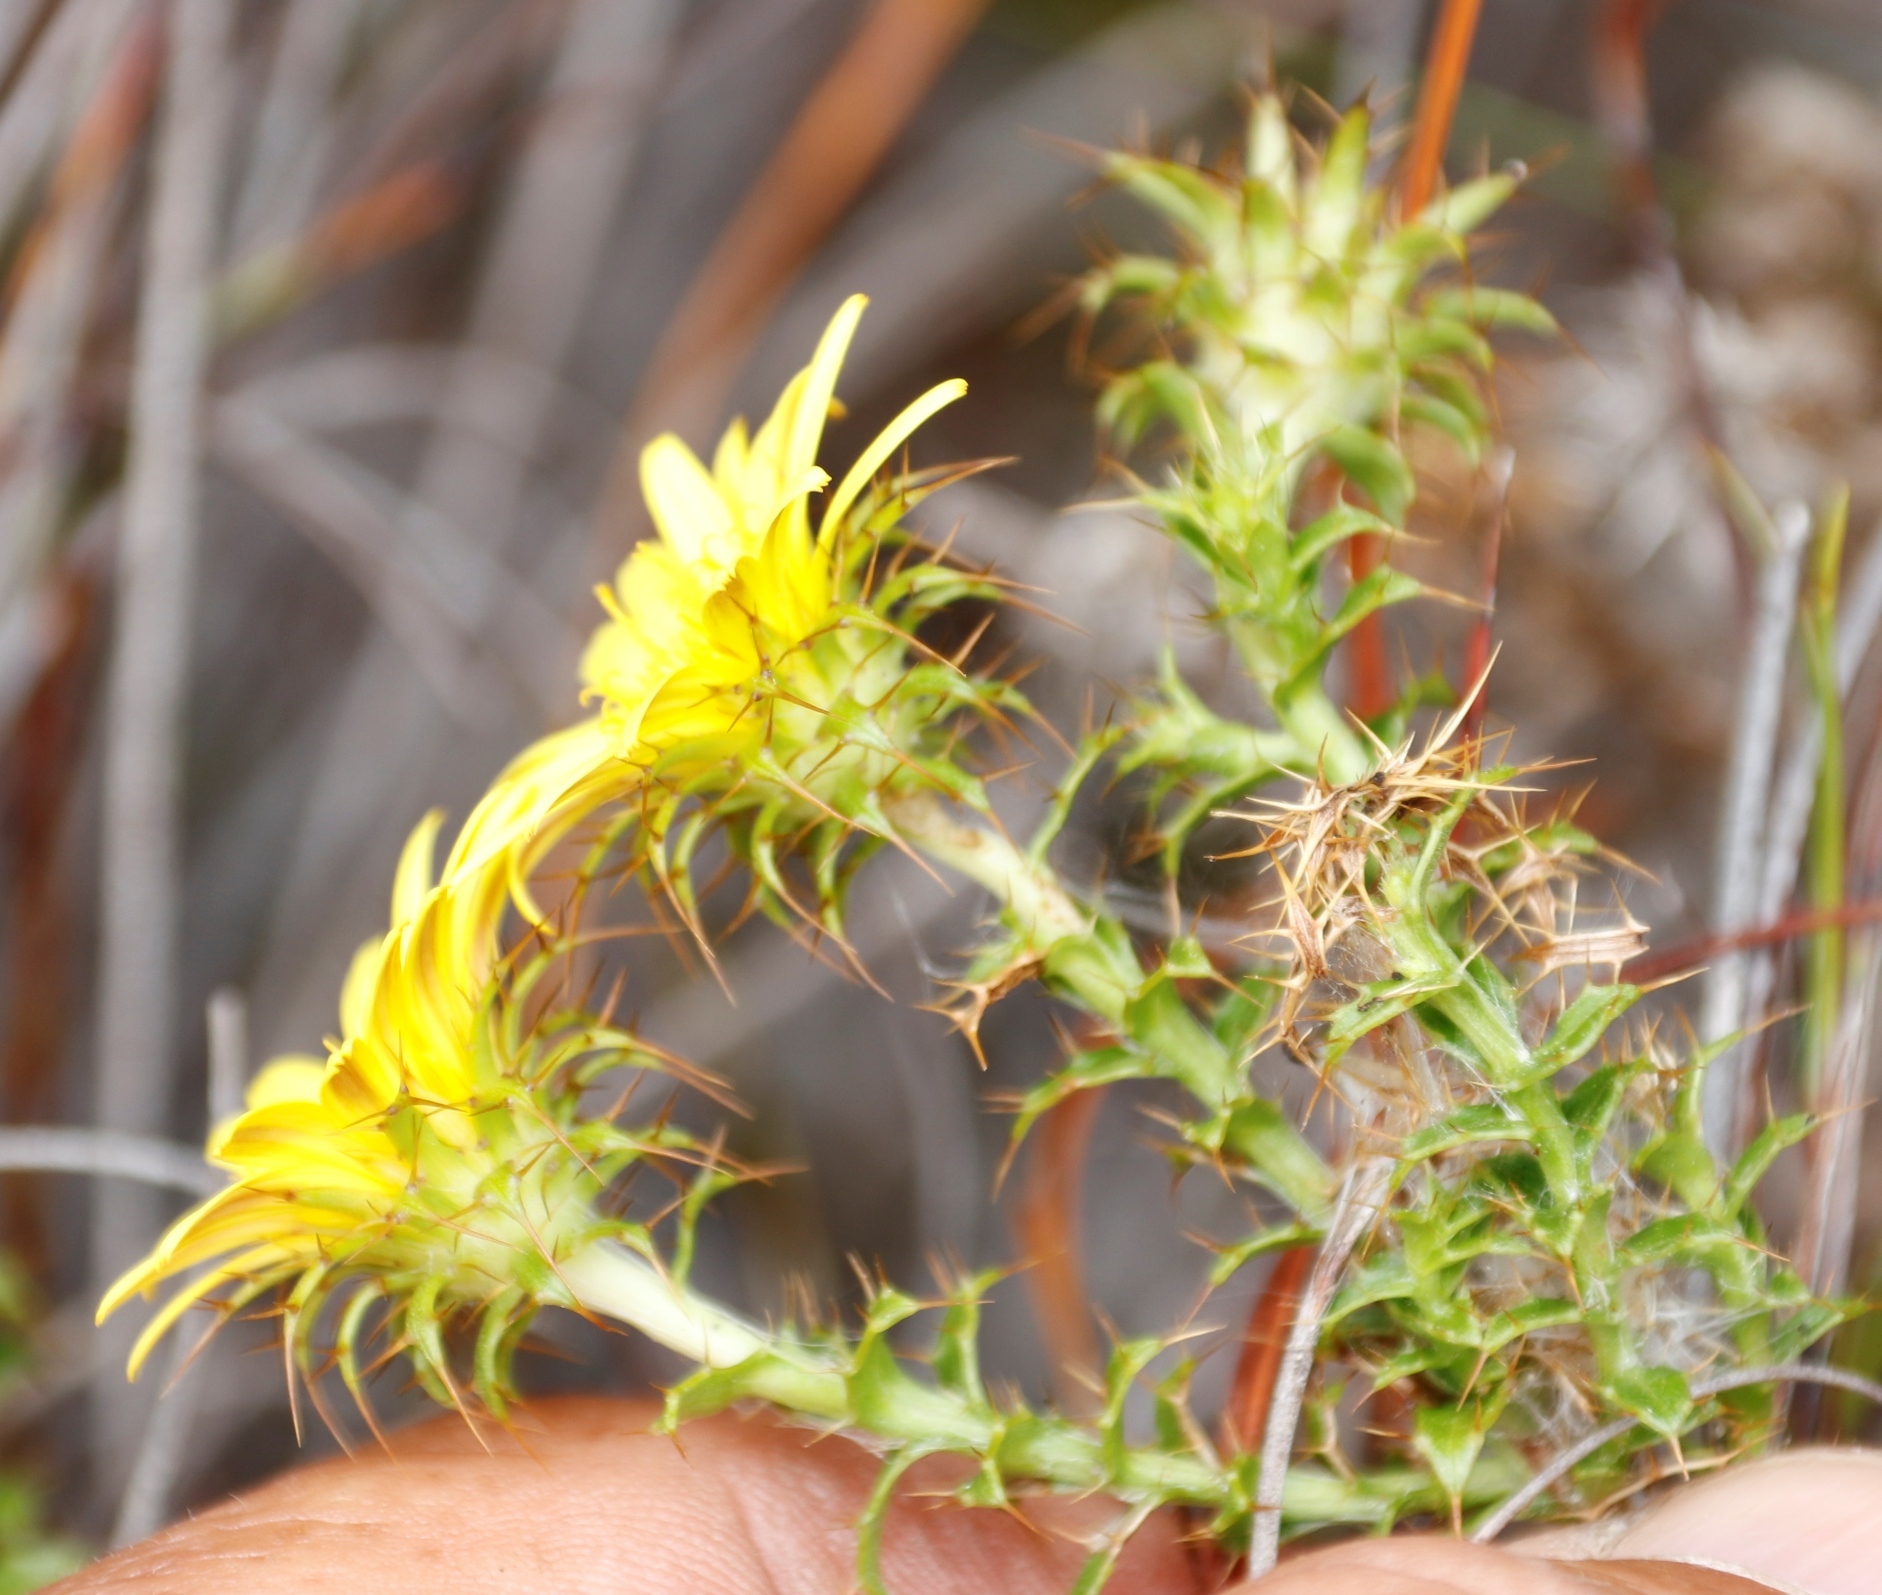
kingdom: Plantae
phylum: Tracheophyta
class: Magnoliopsida
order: Asterales
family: Asteraceae
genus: Cullumia
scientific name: Cullumia setosa
